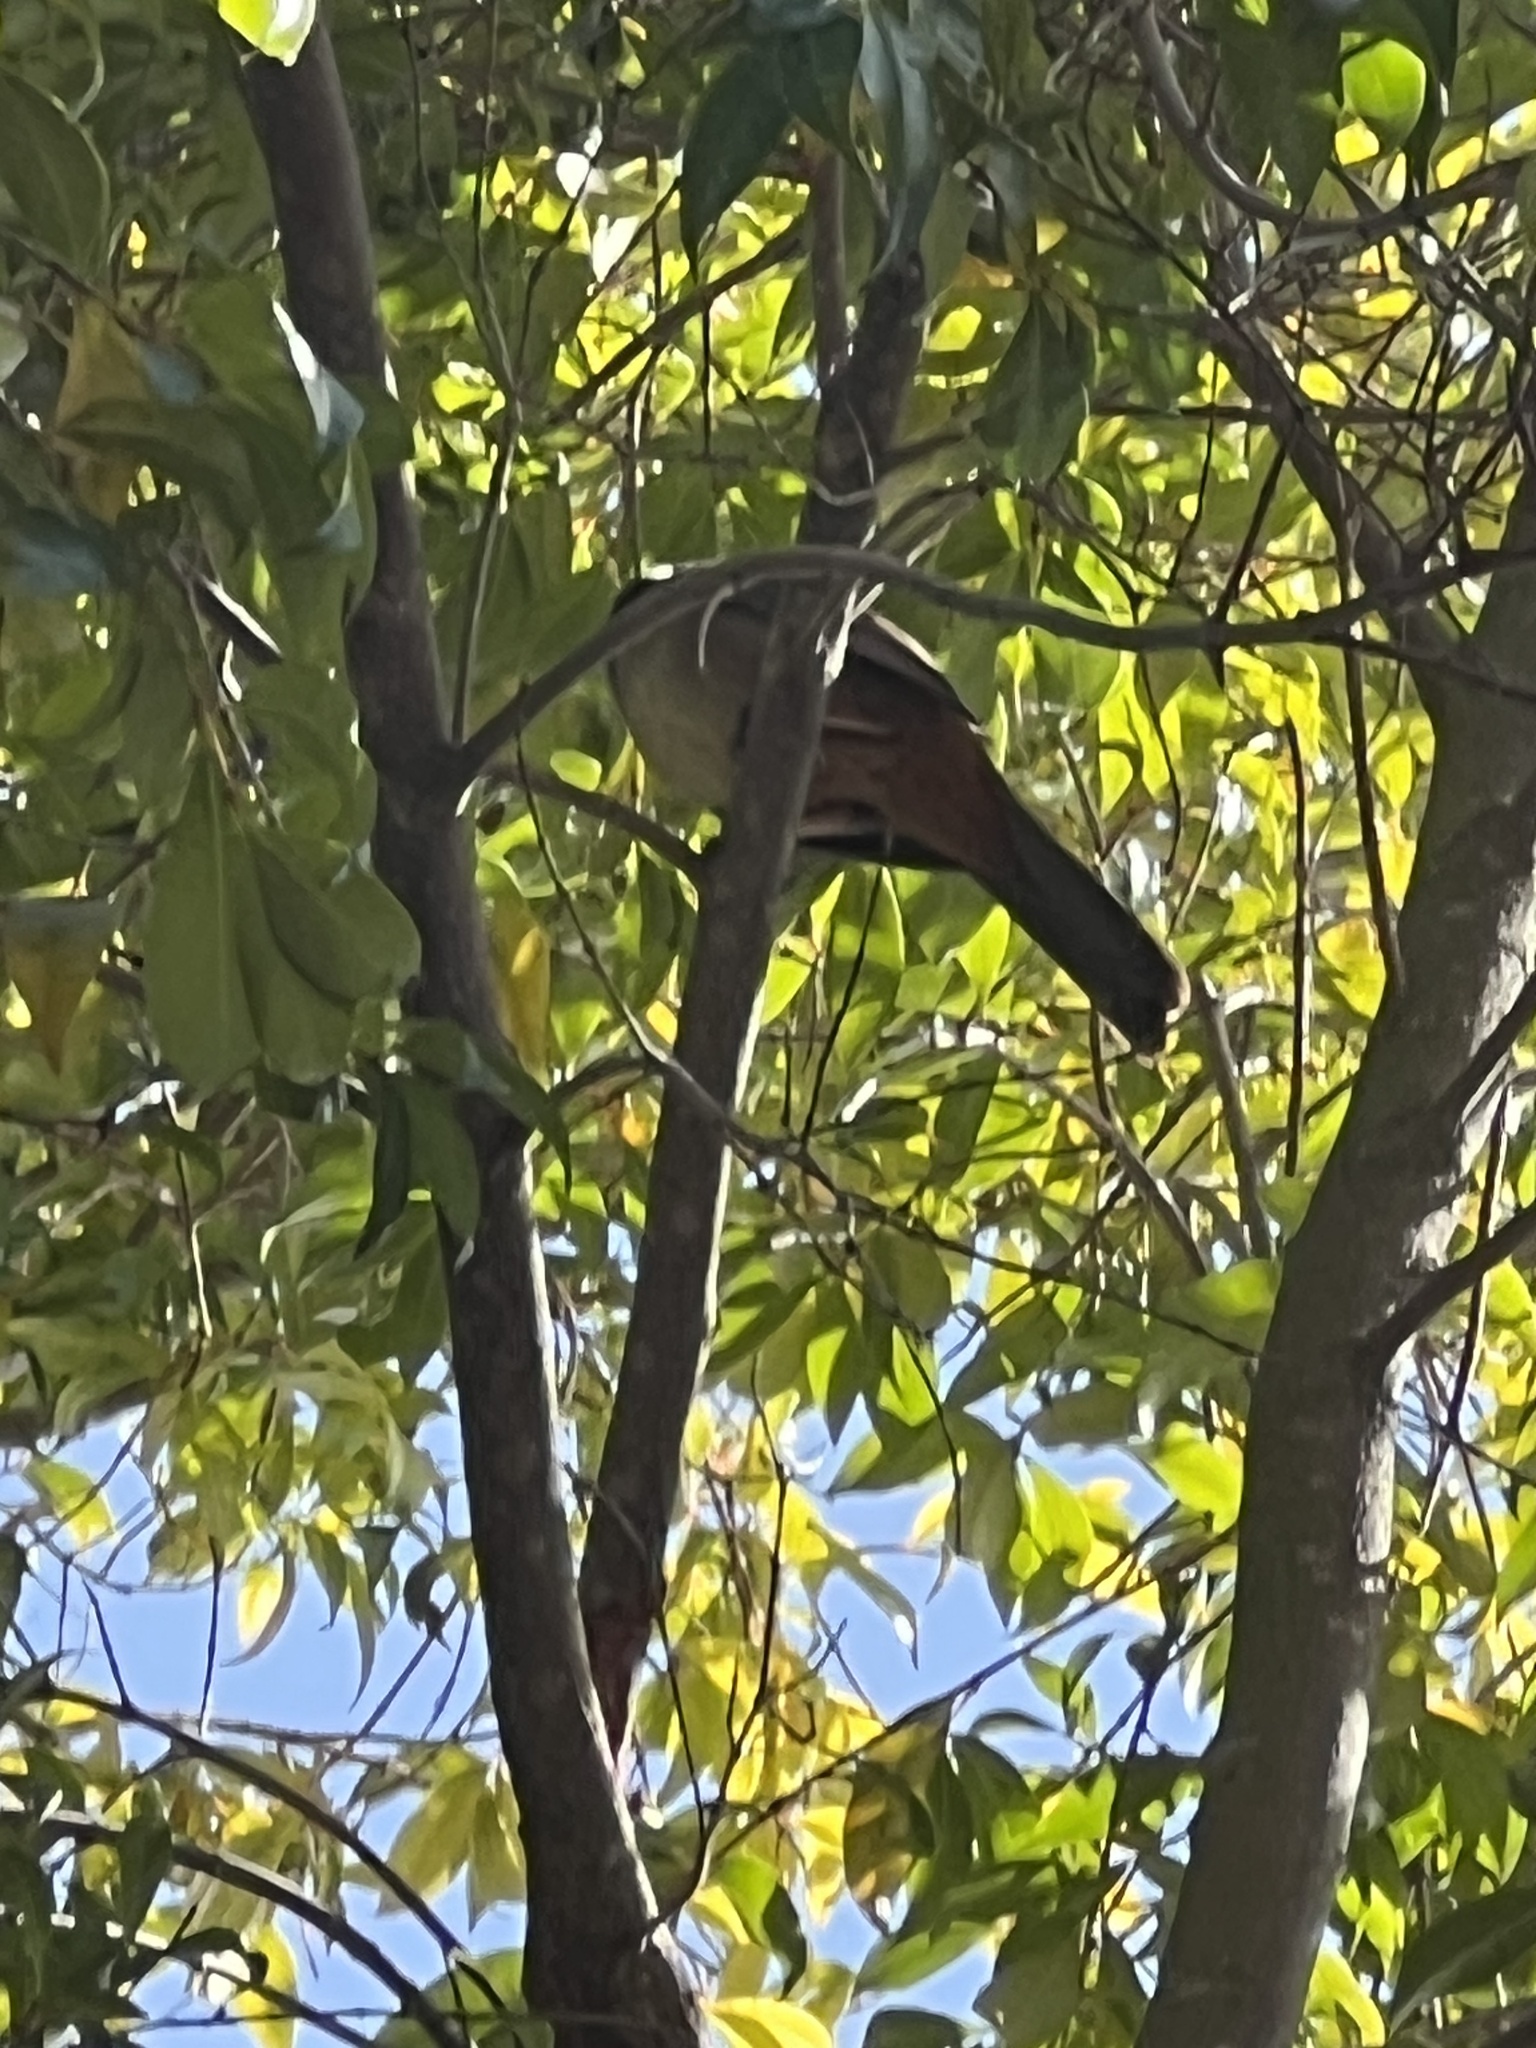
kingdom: Animalia
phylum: Chordata
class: Aves
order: Passeriformes
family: Passerellidae
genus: Melozone
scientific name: Melozone crissalis
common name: California towhee
